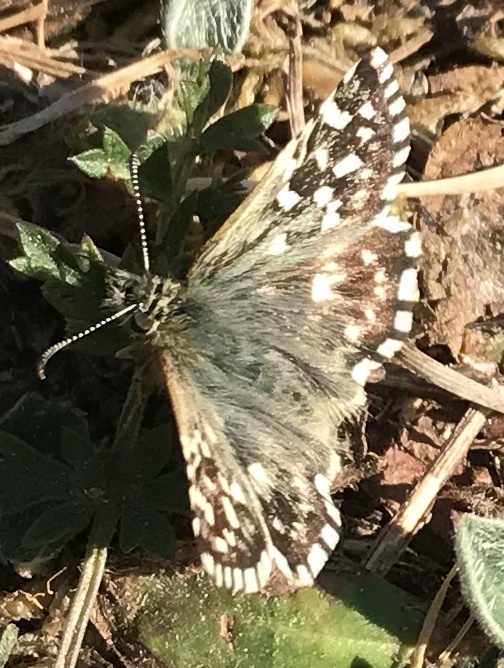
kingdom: Animalia
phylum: Arthropoda
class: Insecta
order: Lepidoptera
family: Hesperiidae
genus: Pyrgus
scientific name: Pyrgus malvae
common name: Grizzled skipper
